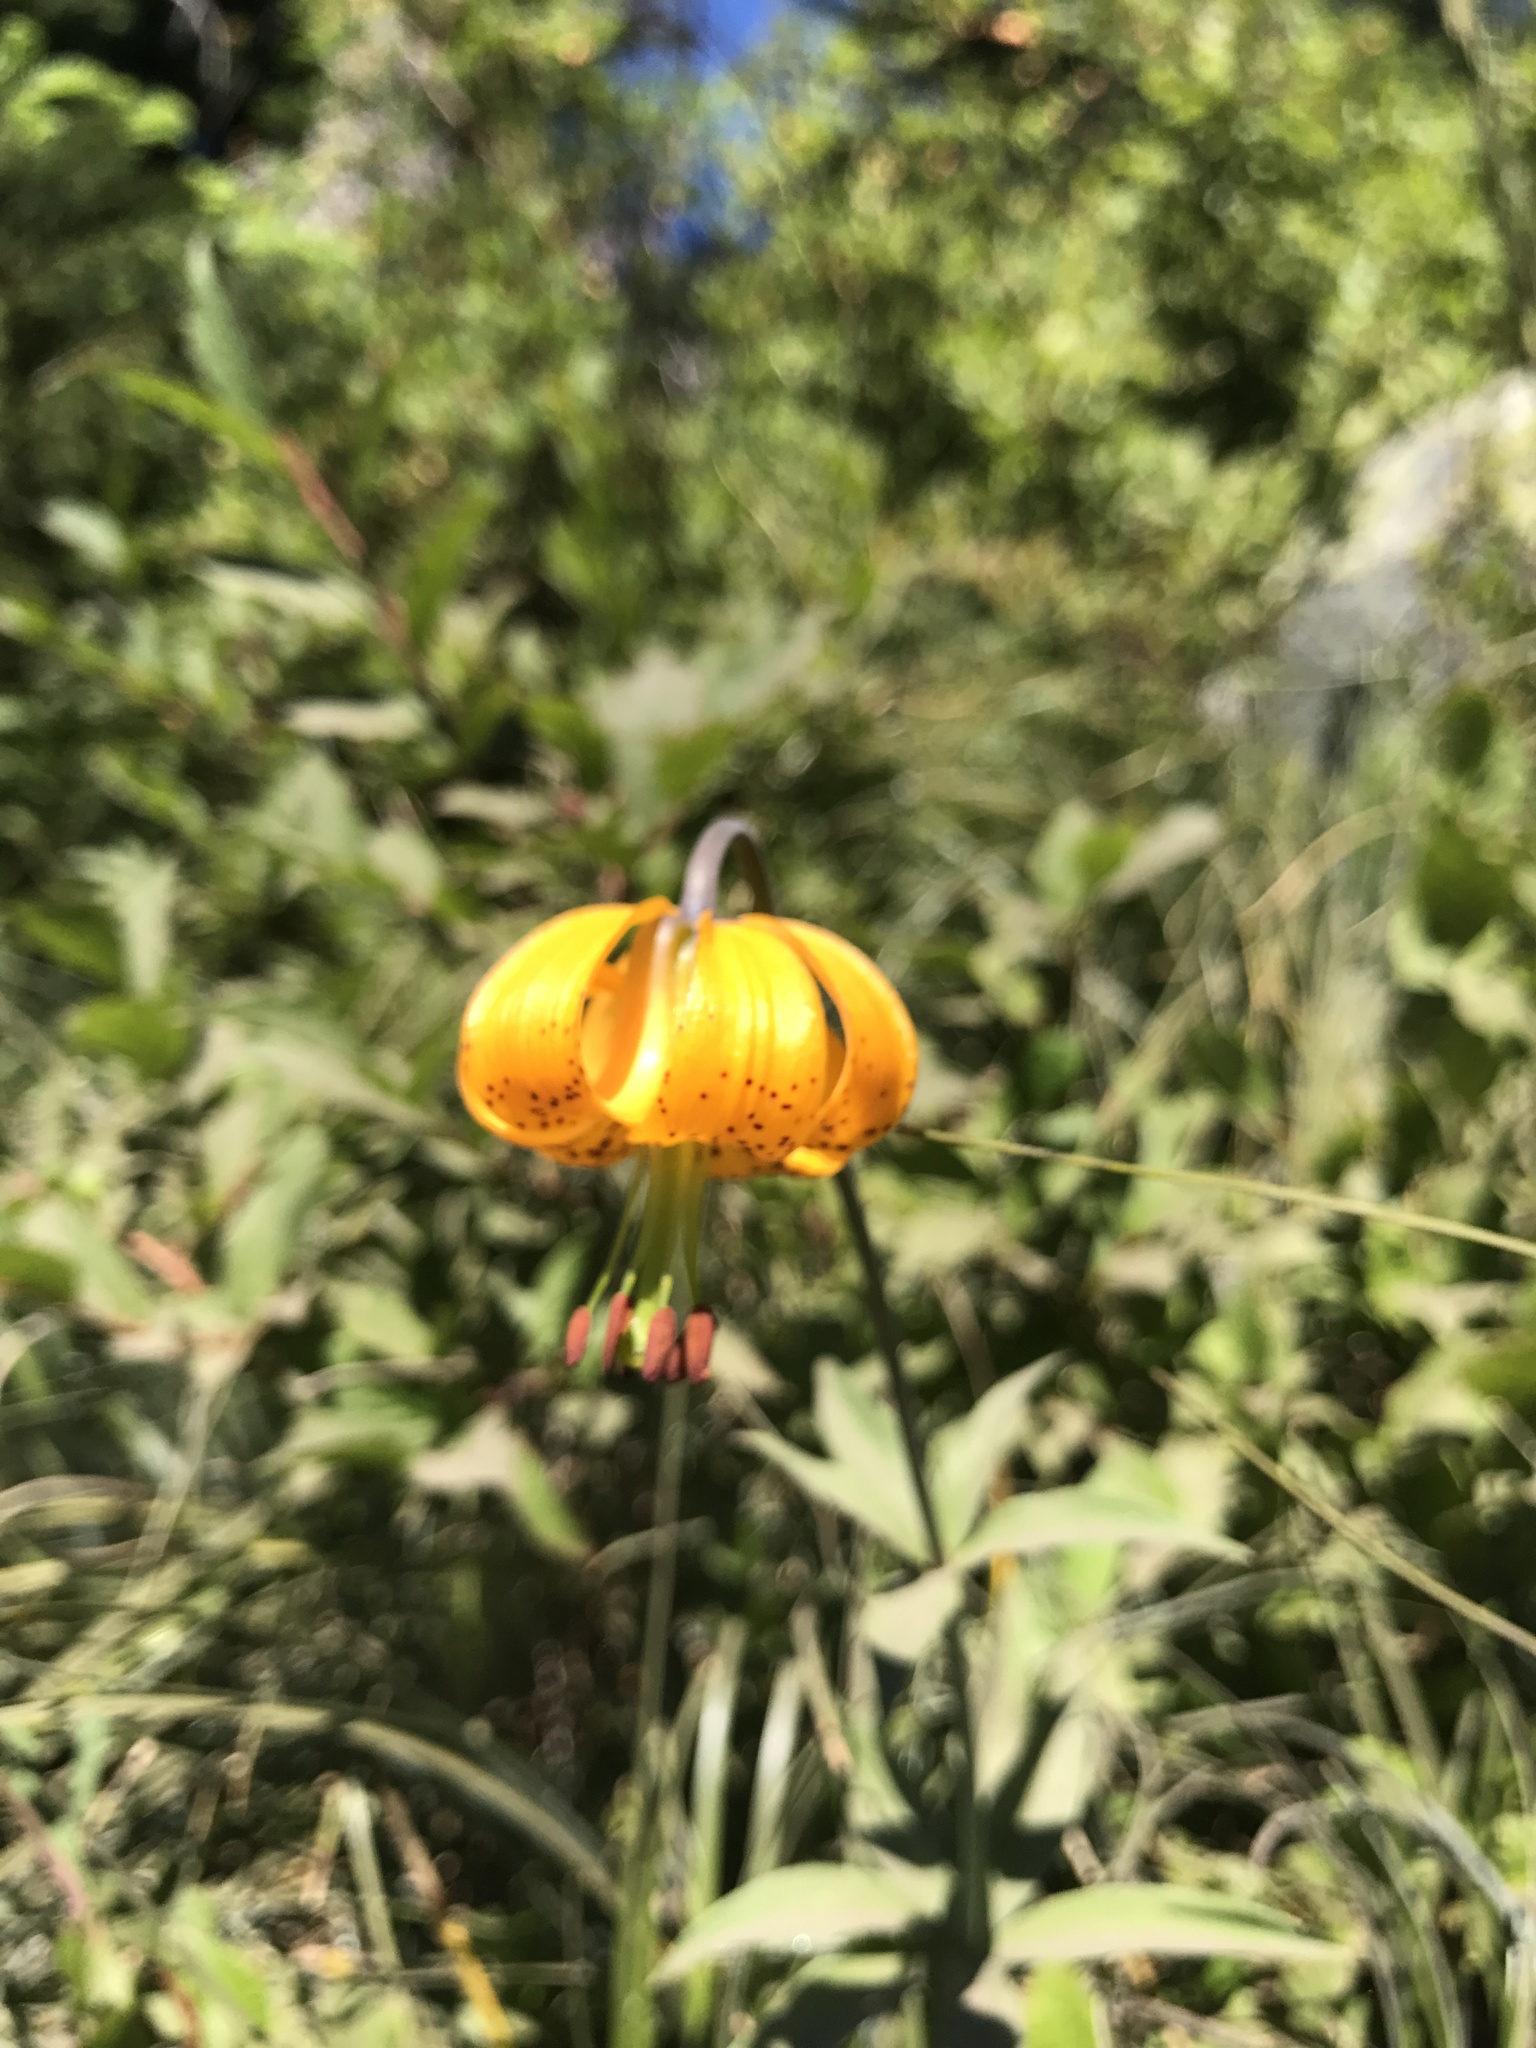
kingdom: Plantae
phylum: Tracheophyta
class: Liliopsida
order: Liliales
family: Liliaceae
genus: Lilium
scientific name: Lilium columbianum
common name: Columbia lily
